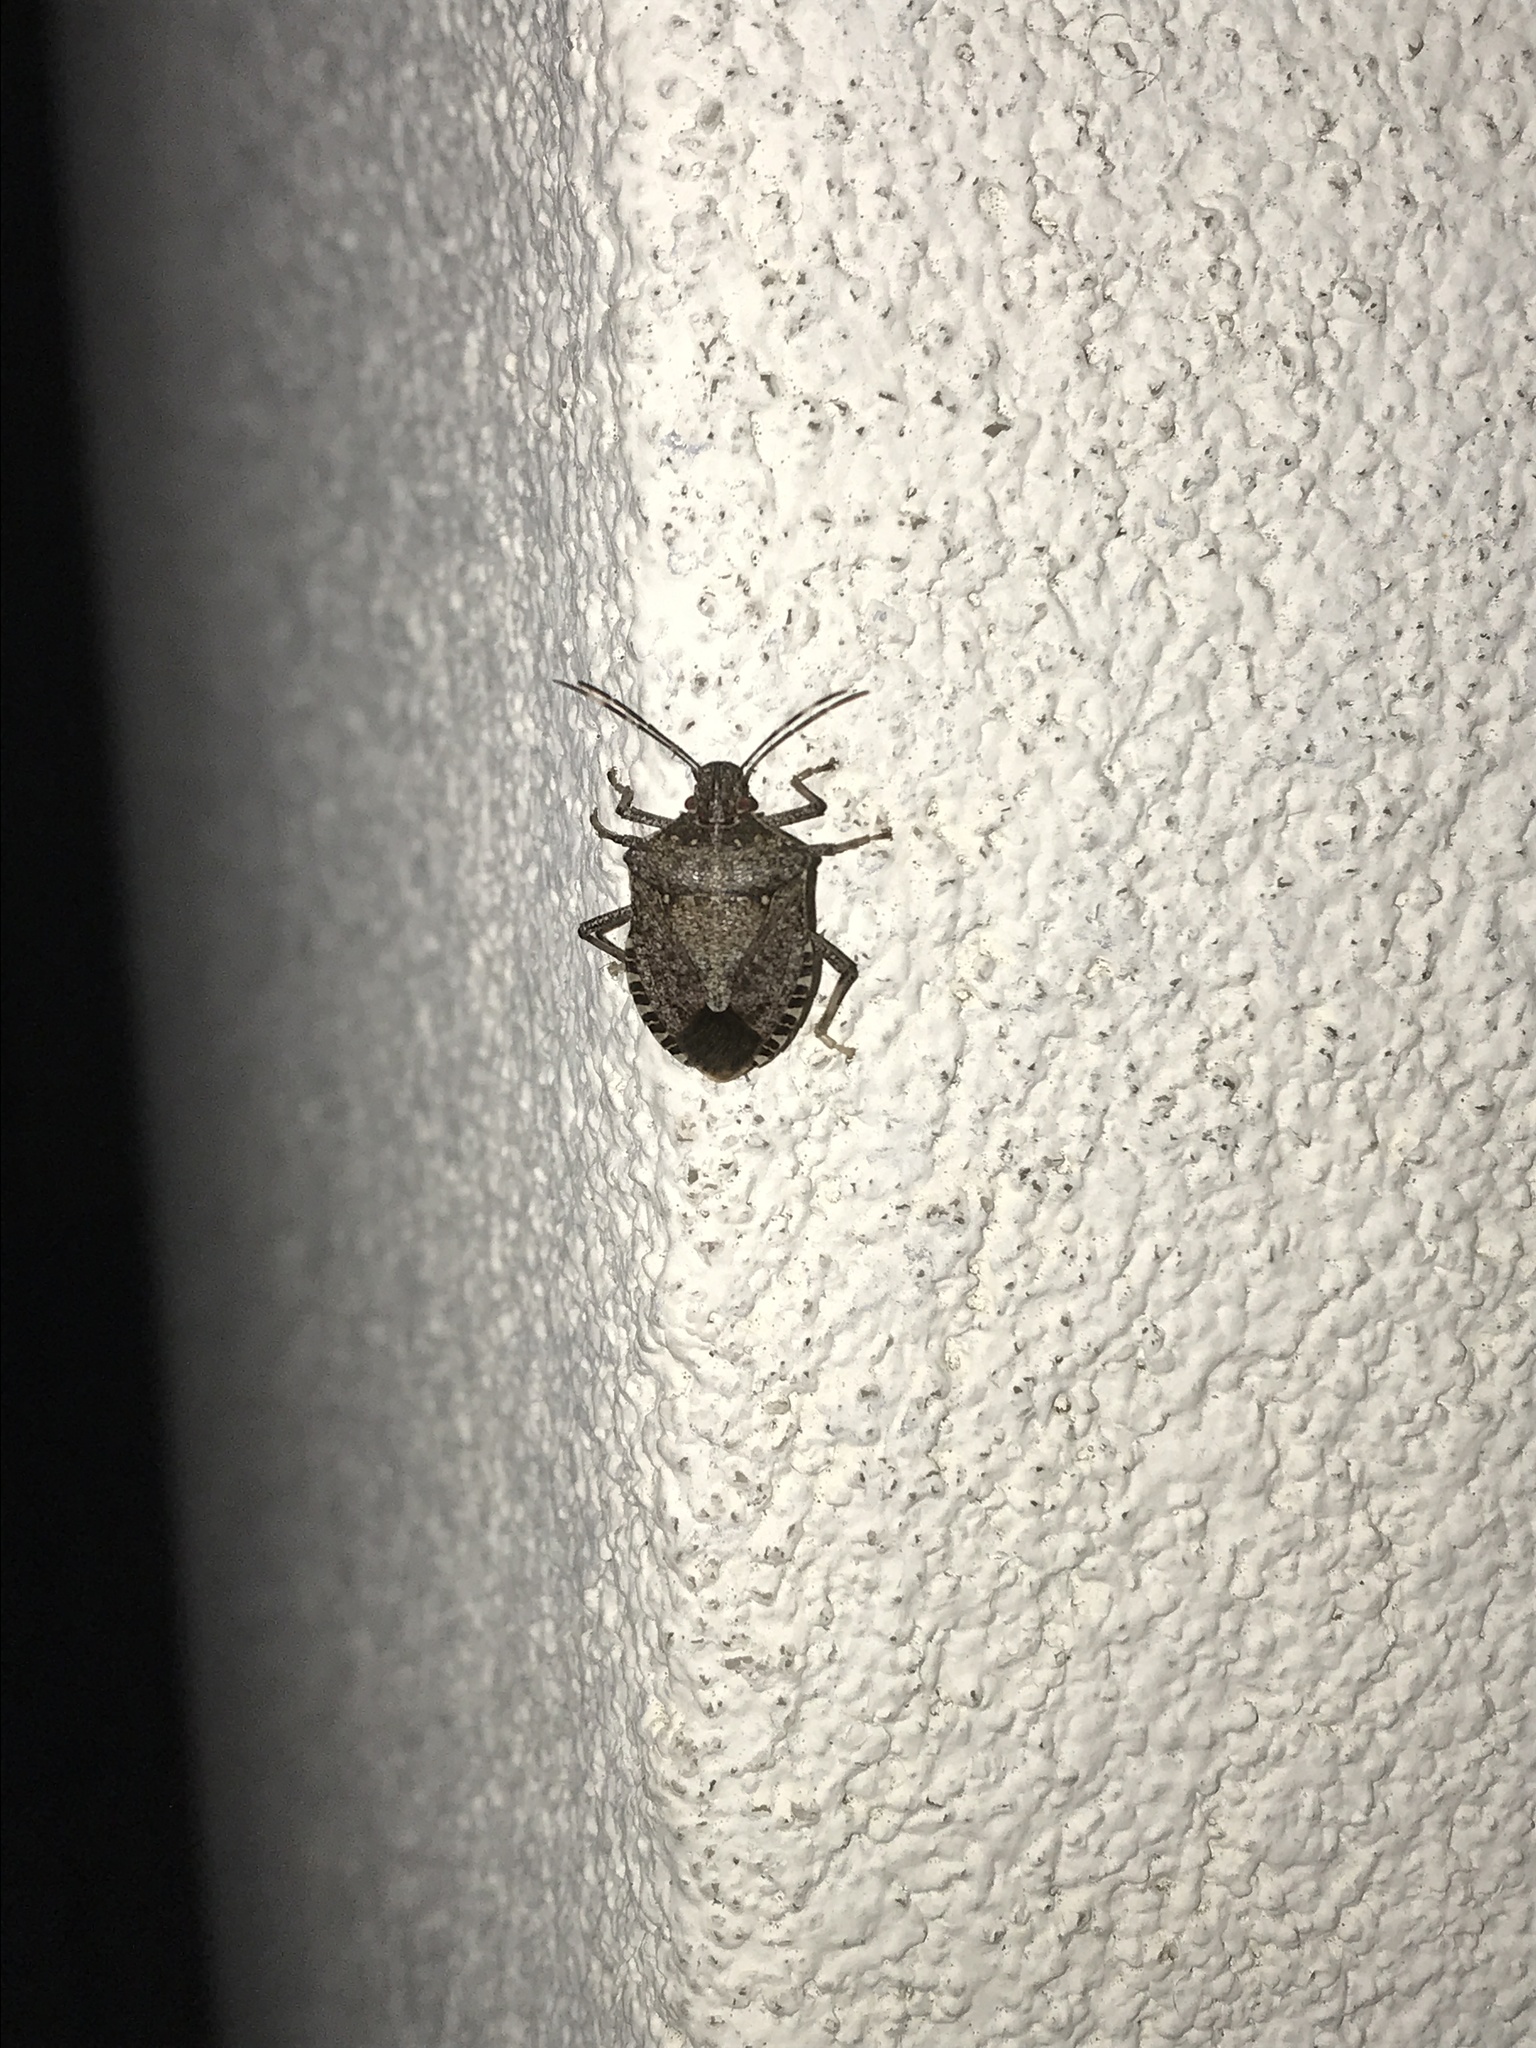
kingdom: Animalia
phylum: Arthropoda
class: Insecta
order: Hemiptera
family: Pentatomidae
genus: Halyomorpha
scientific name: Halyomorpha halys
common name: Brown marmorated stink bug
